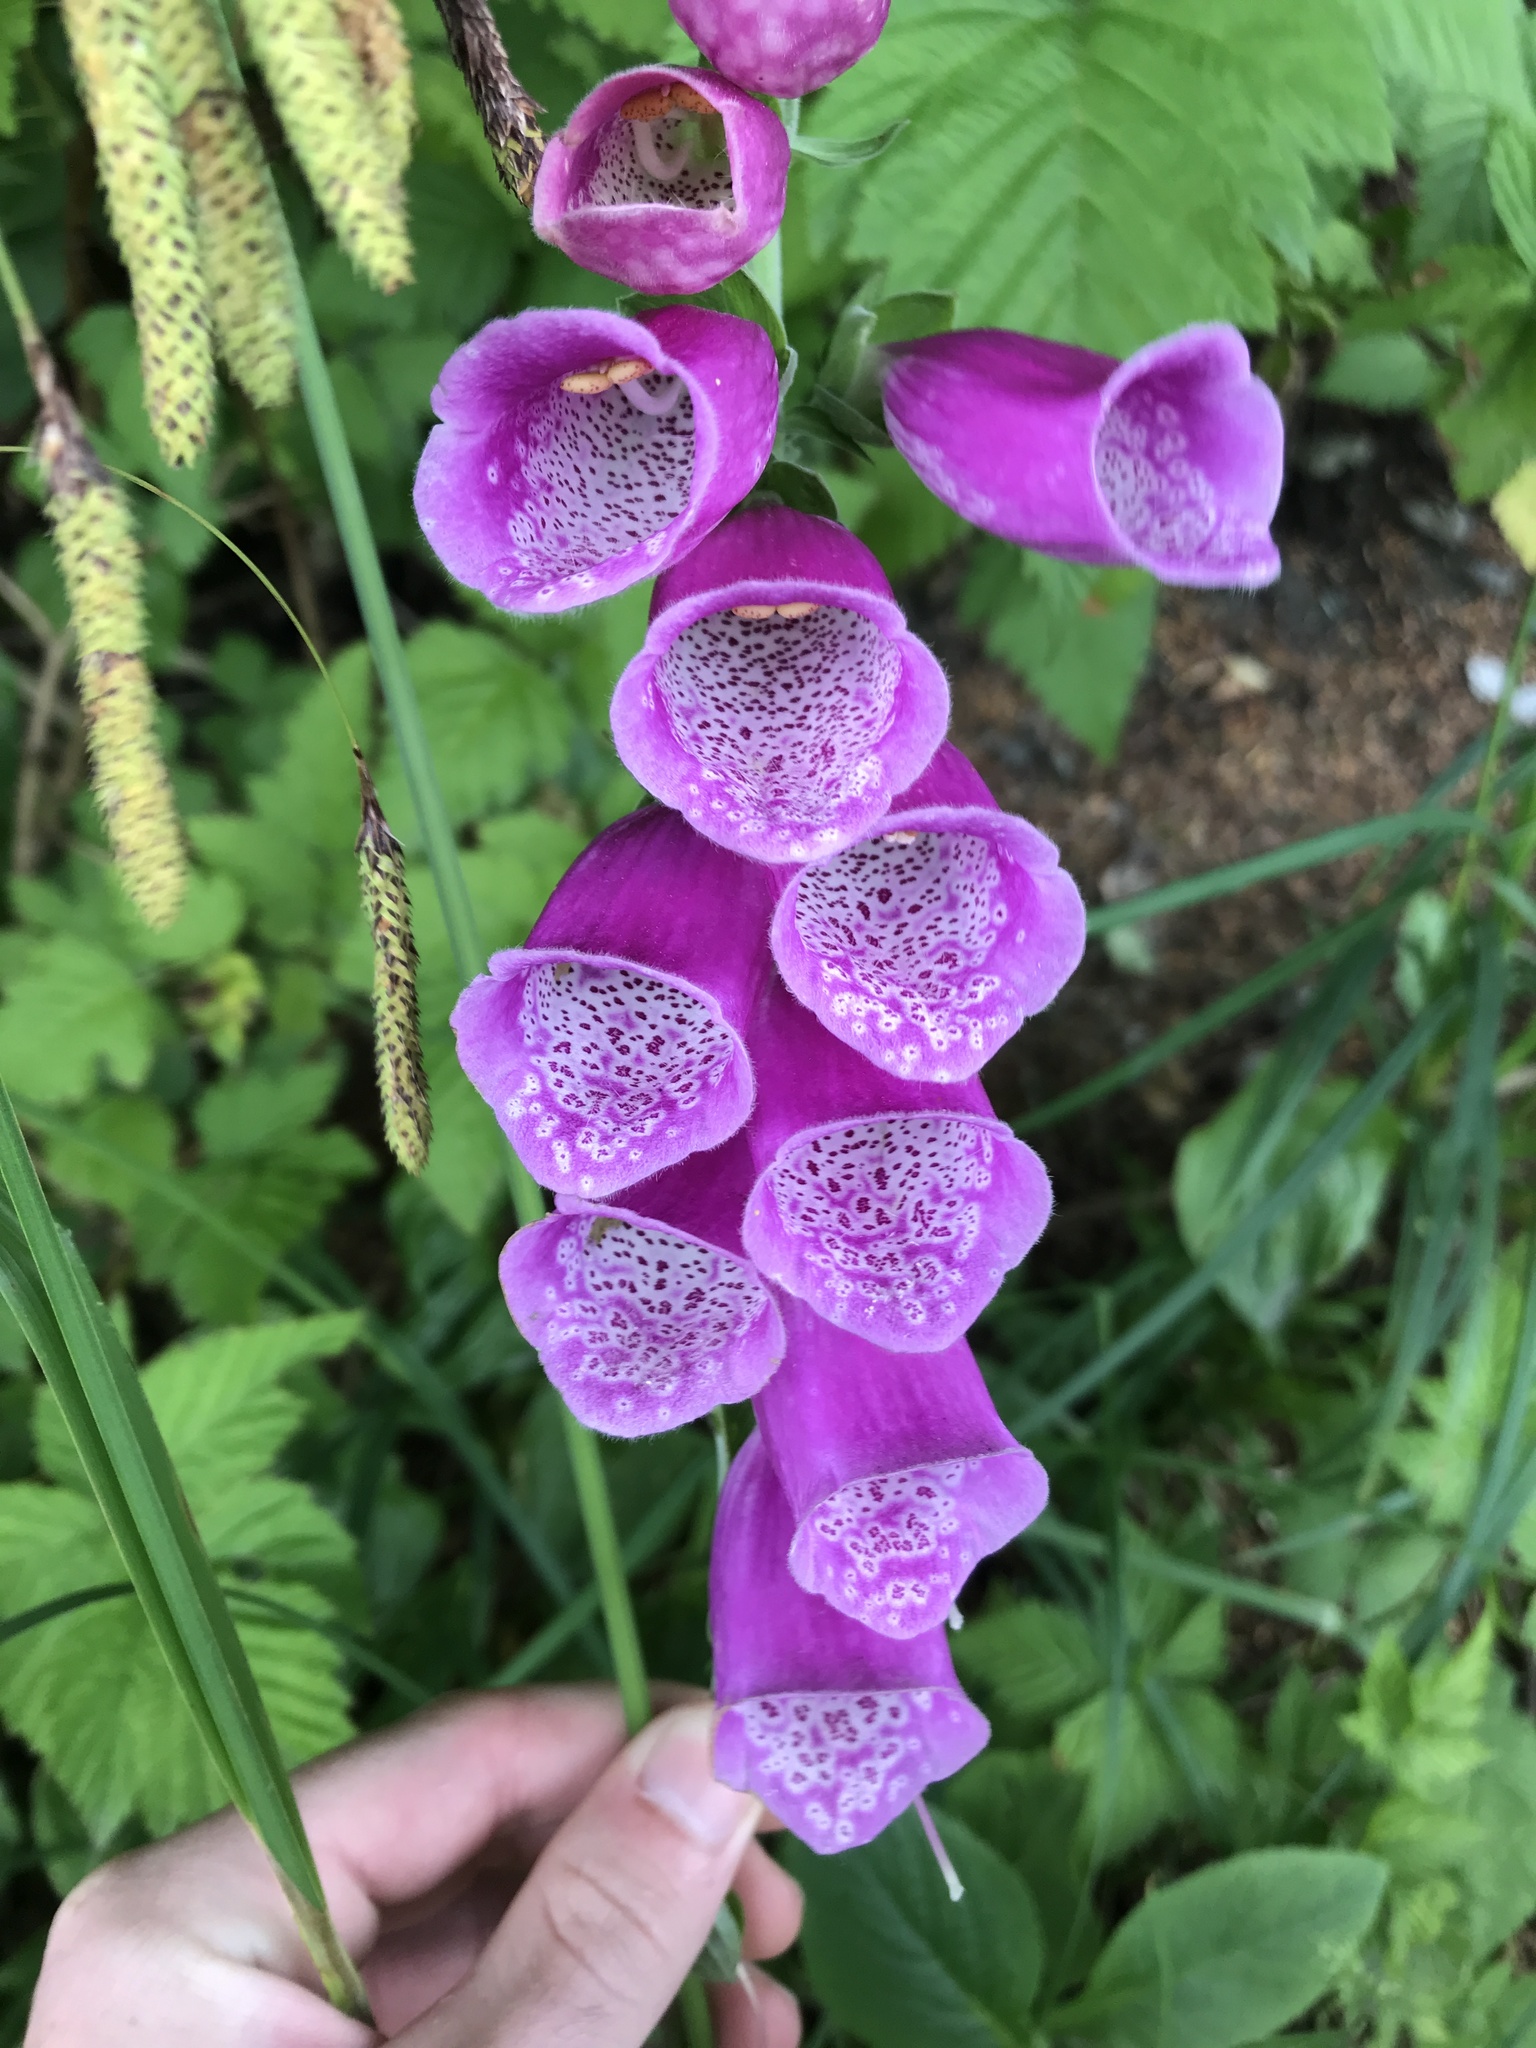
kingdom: Plantae
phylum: Tracheophyta
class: Magnoliopsida
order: Lamiales
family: Plantaginaceae
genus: Digitalis
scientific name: Digitalis purpurea
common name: Foxglove
